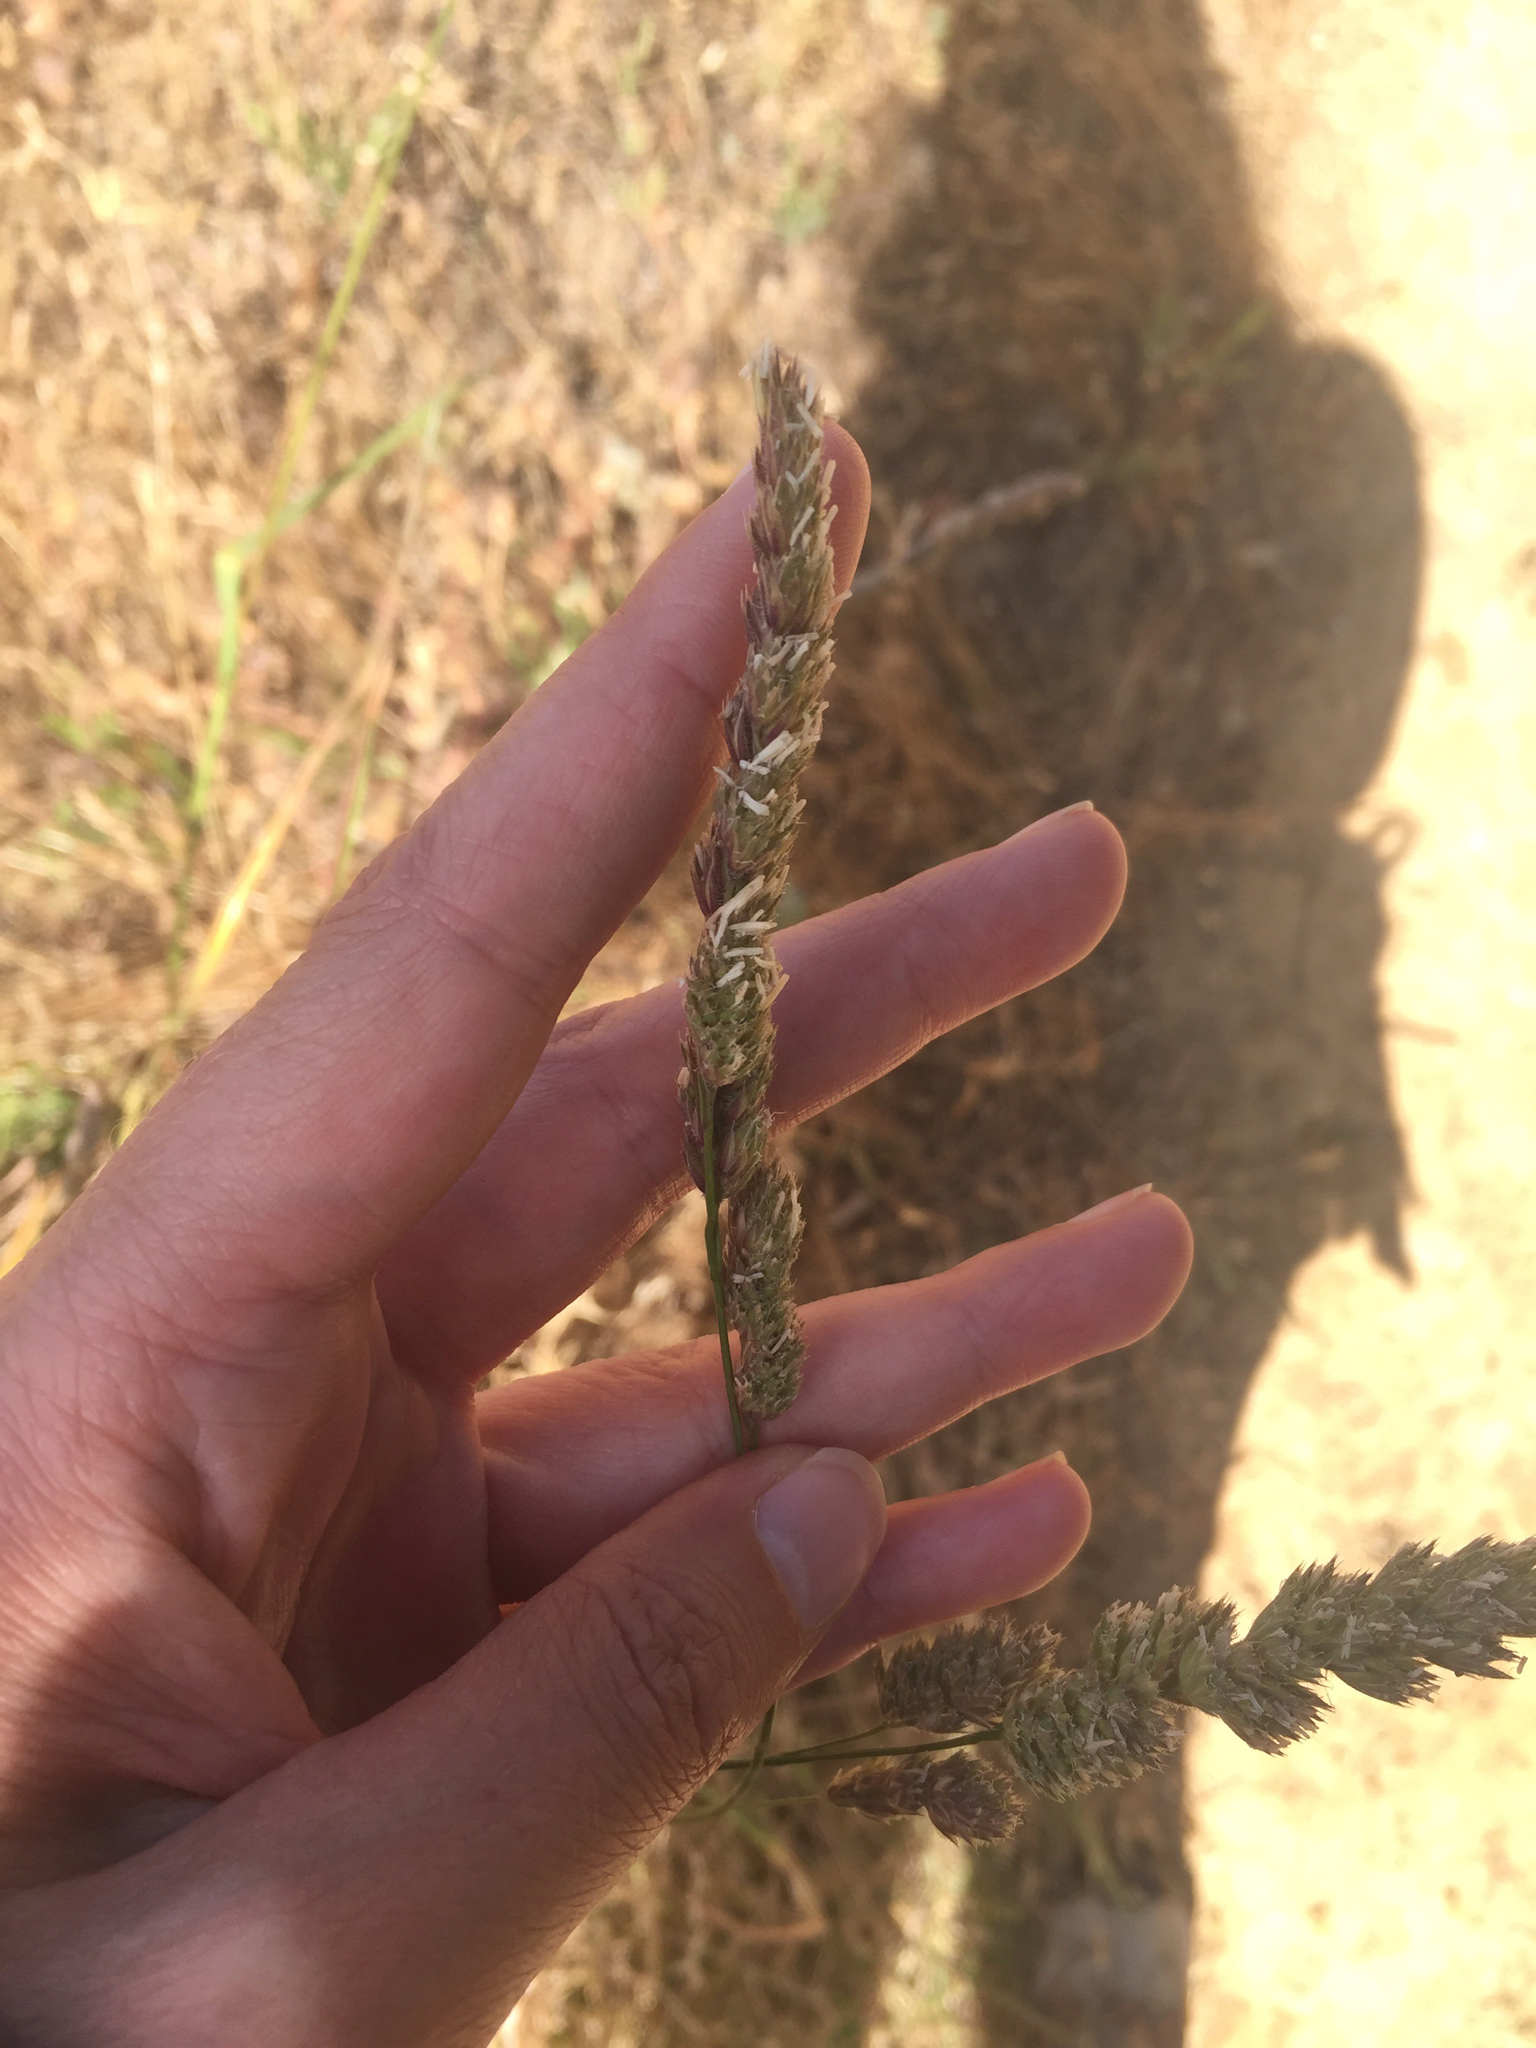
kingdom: Plantae
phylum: Tracheophyta
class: Liliopsida
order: Poales
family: Poaceae
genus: Dactylis
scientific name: Dactylis glomerata
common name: Orchardgrass
